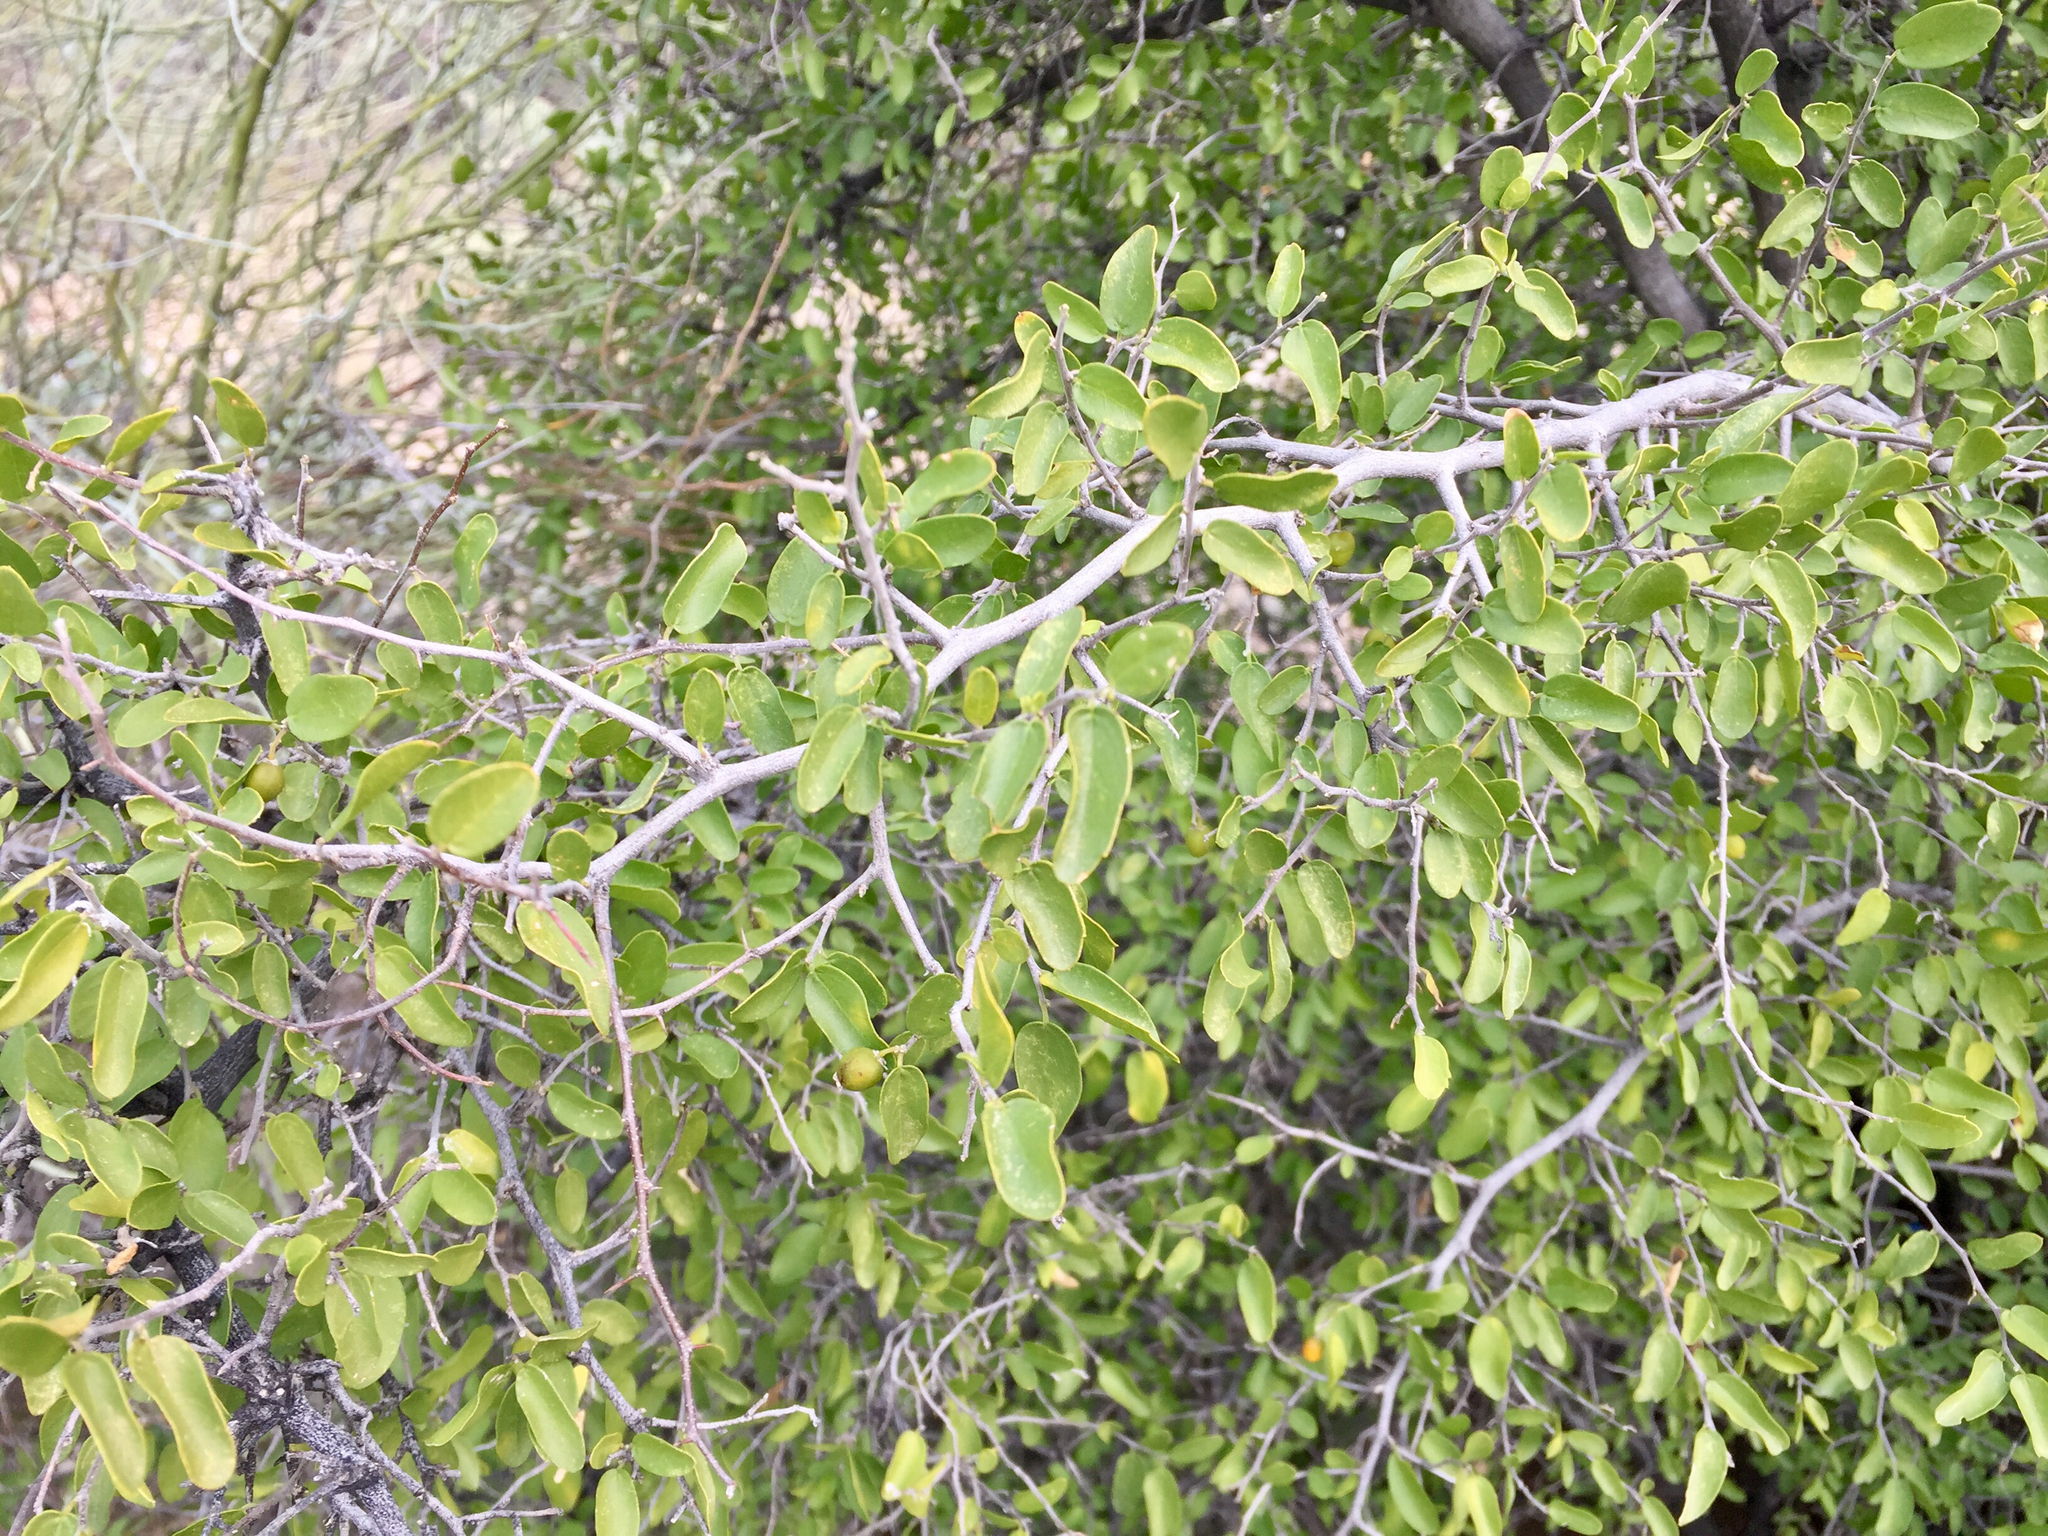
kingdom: Plantae
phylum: Tracheophyta
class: Magnoliopsida
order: Rosales
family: Cannabaceae
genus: Celtis
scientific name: Celtis pallida
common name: Desert hackberry
